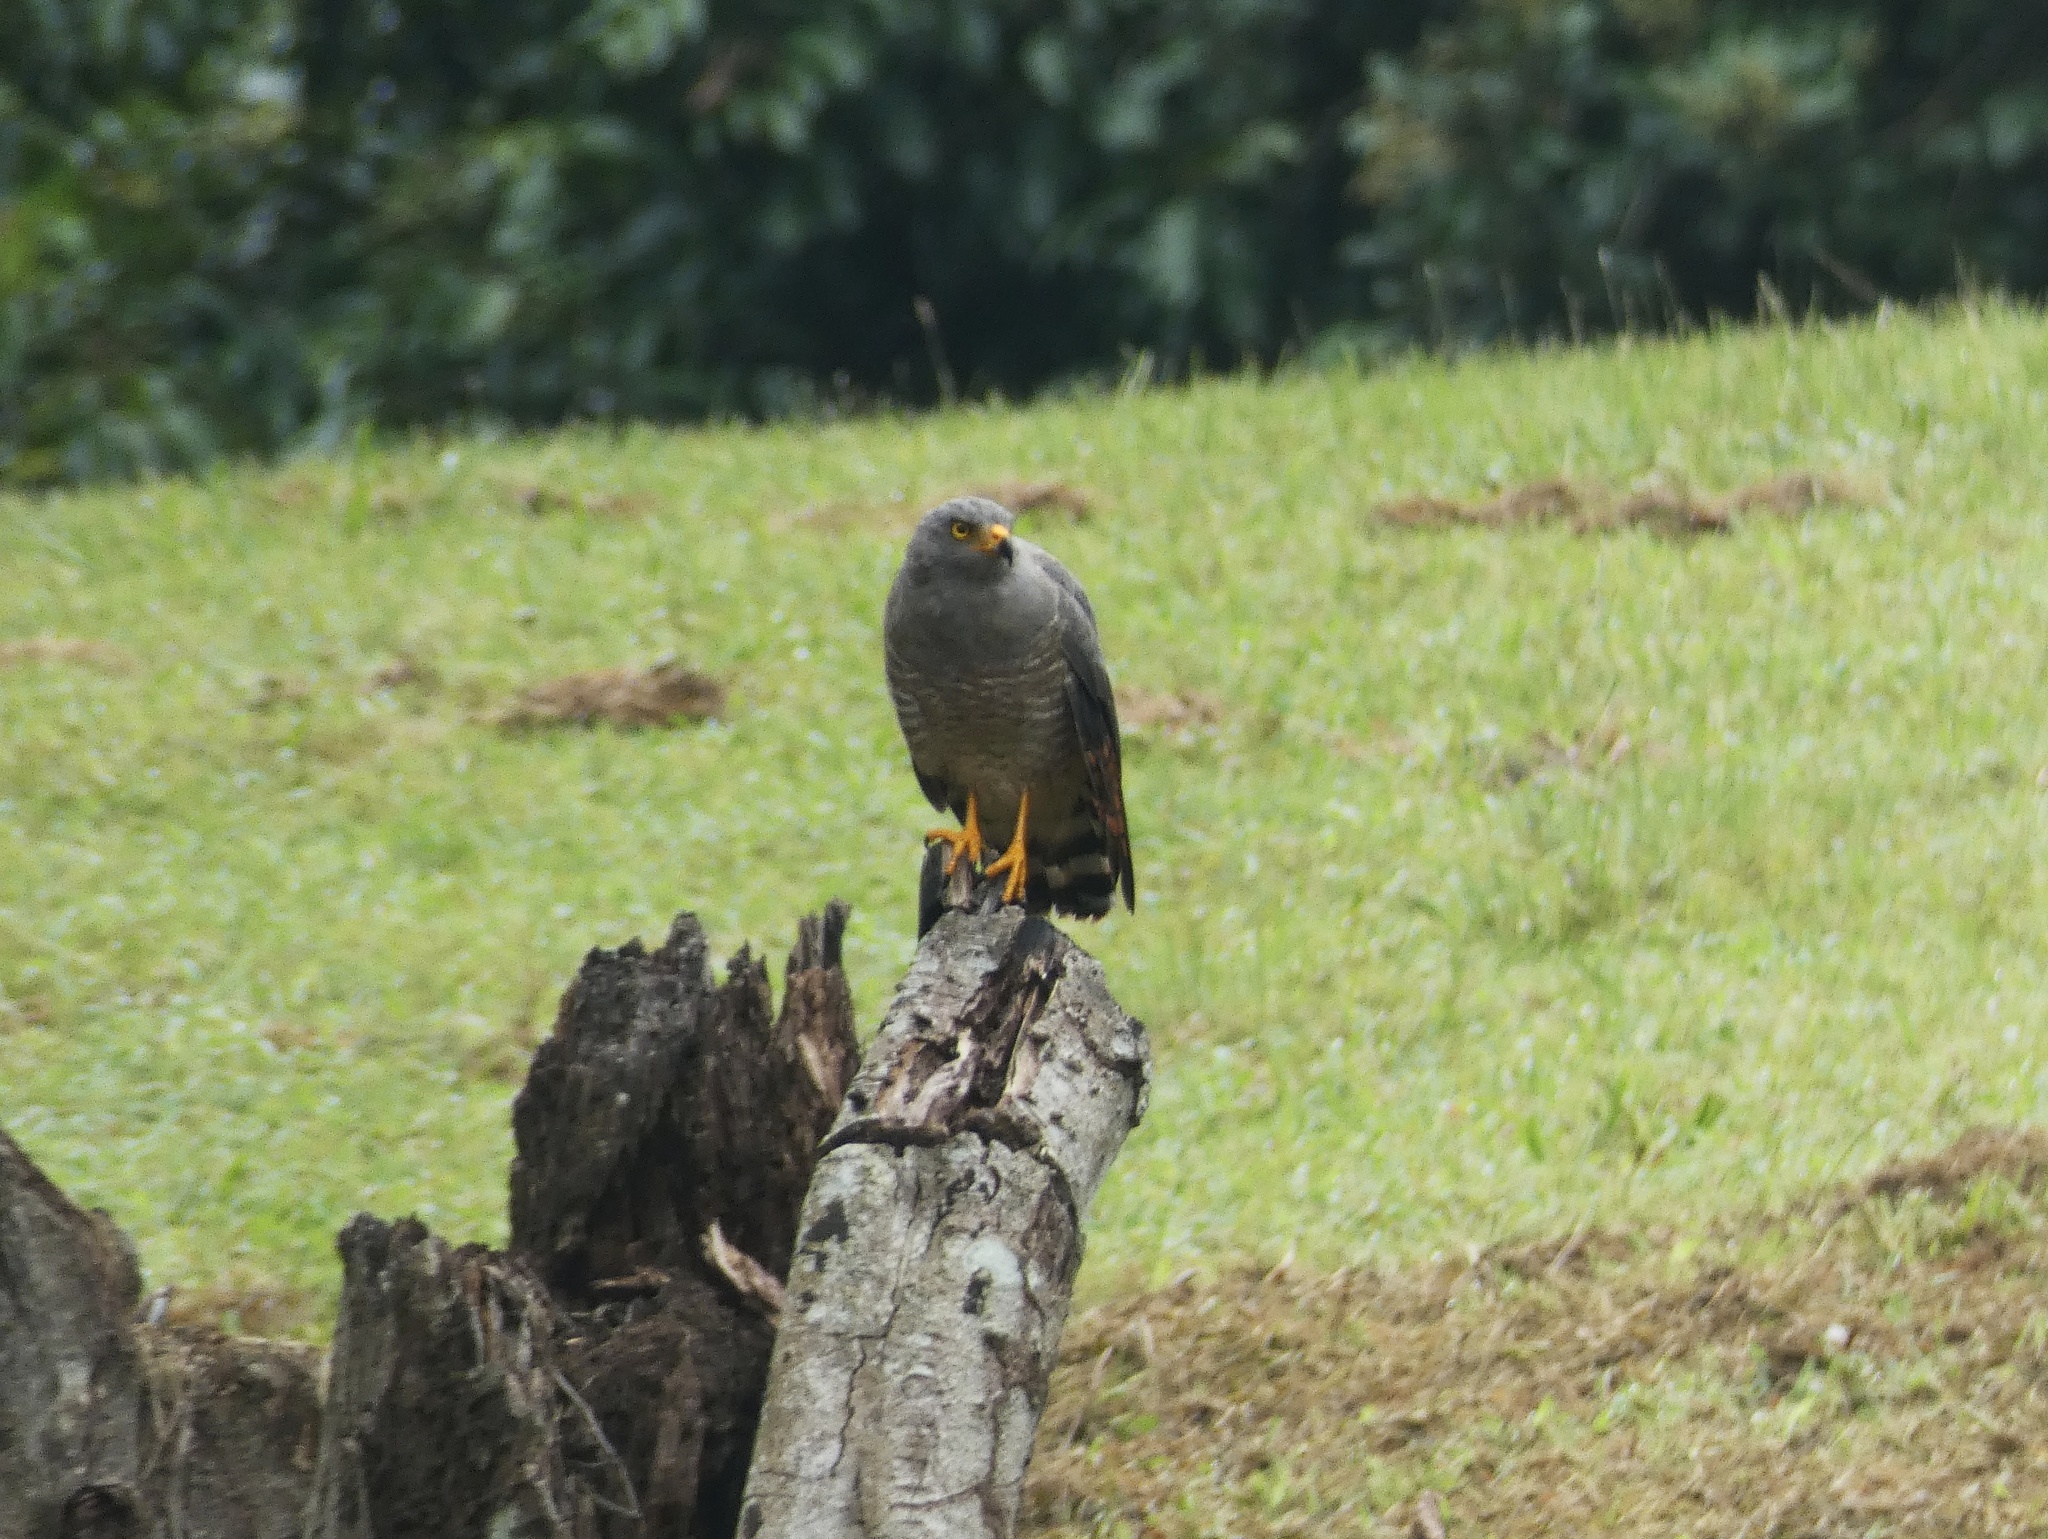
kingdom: Animalia
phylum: Chordata
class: Aves
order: Accipitriformes
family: Accipitridae
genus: Rupornis
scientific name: Rupornis magnirostris
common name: Roadside hawk
